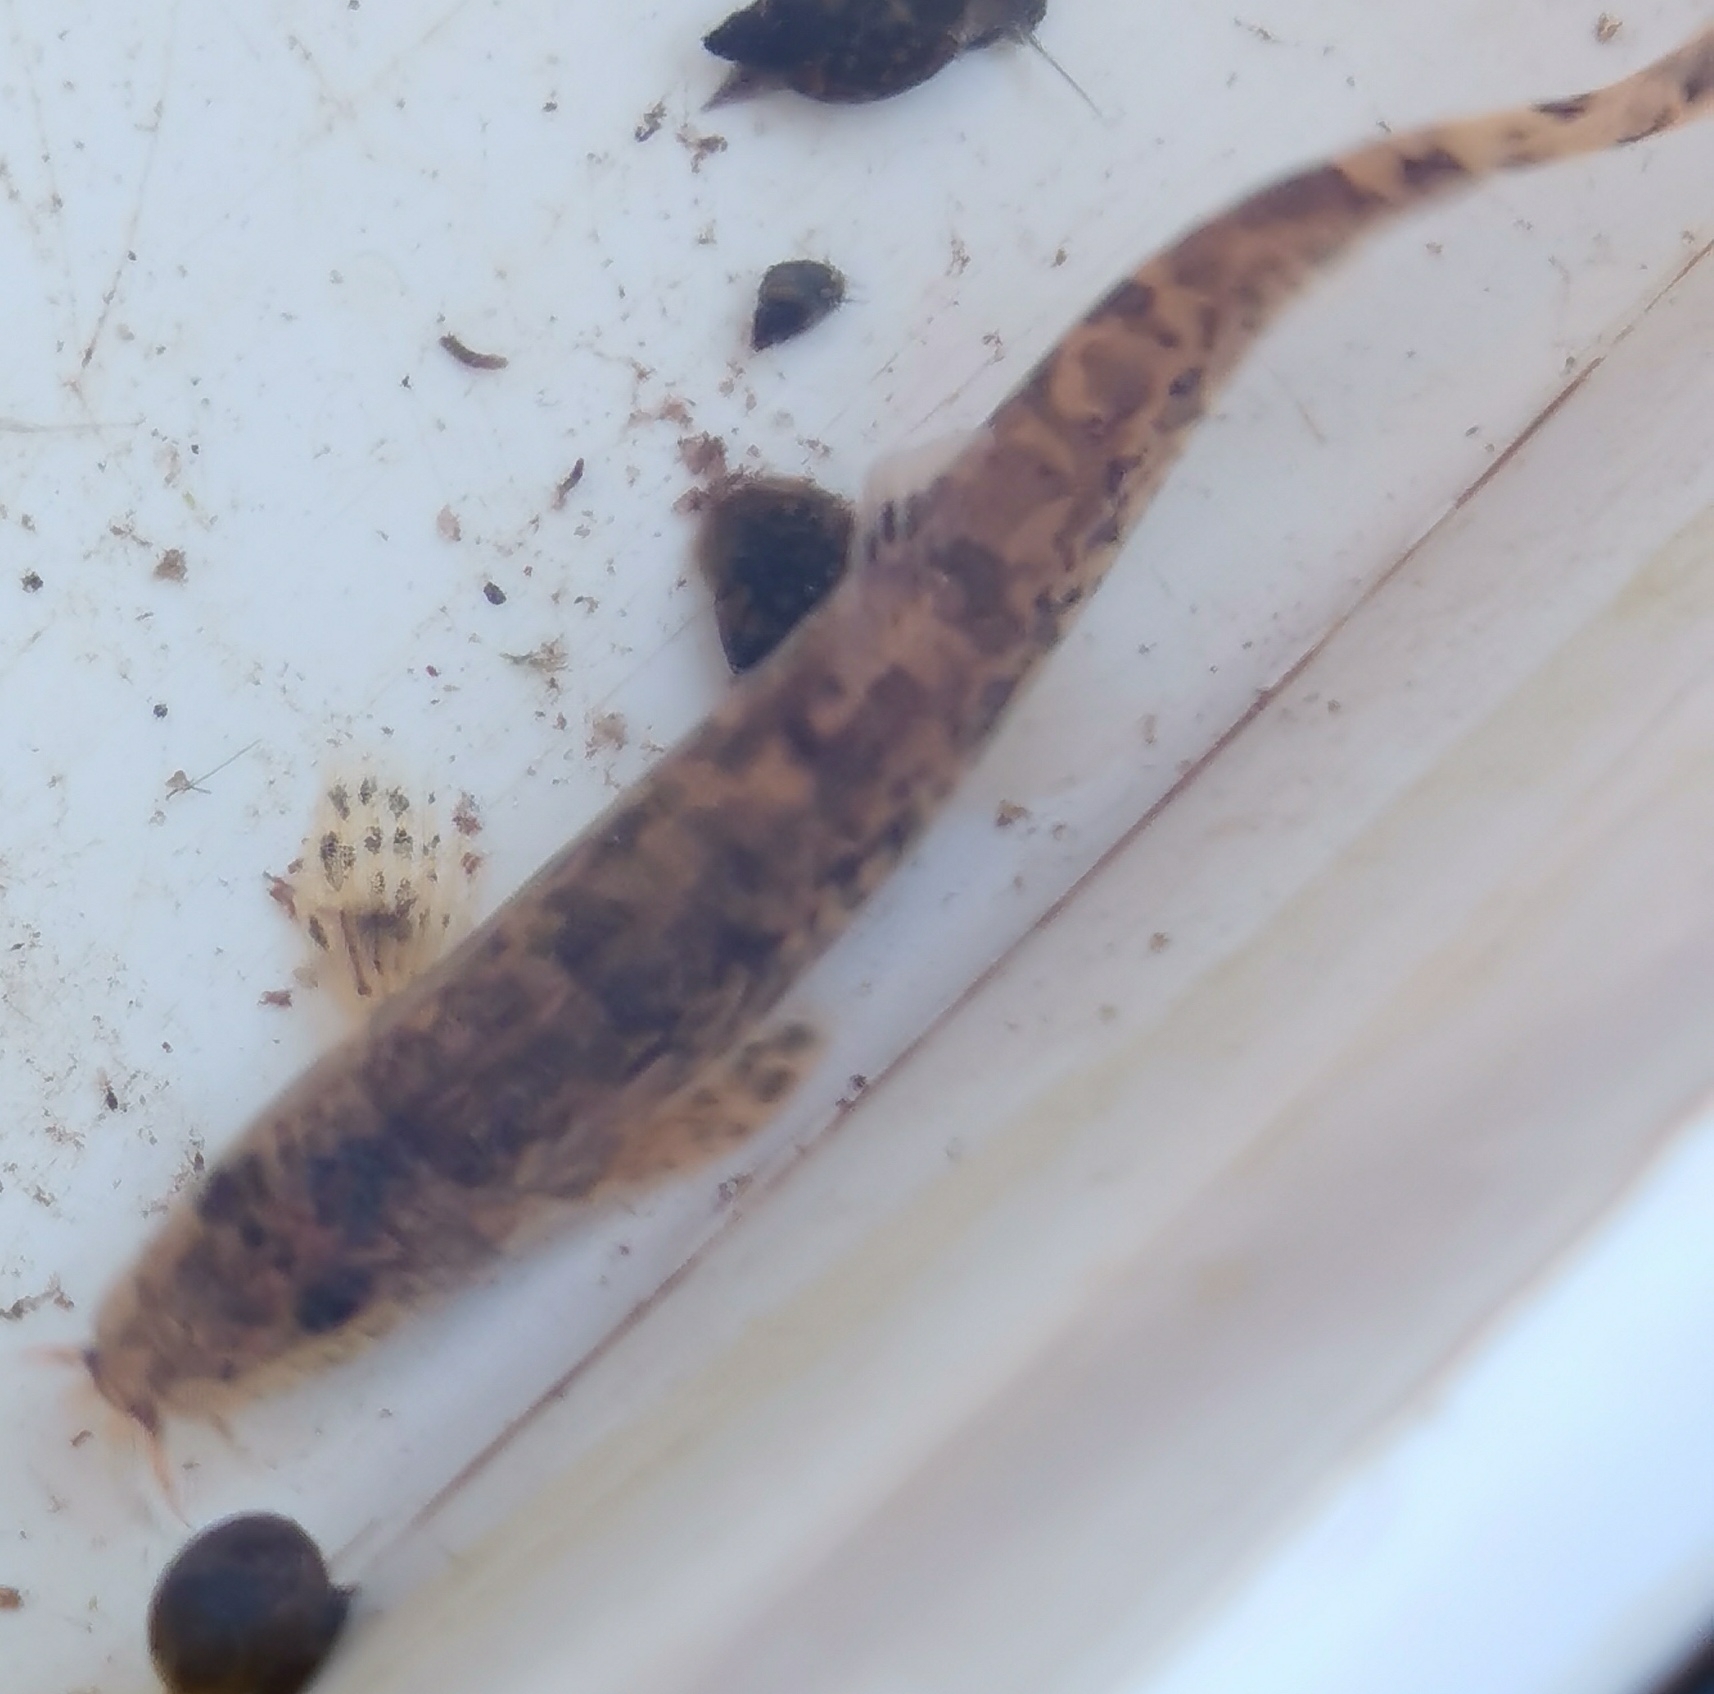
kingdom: Animalia
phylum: Chordata
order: Cypriniformes
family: Nemacheilidae
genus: Barbatula
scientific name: Barbatula barbatula
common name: Stone loach
